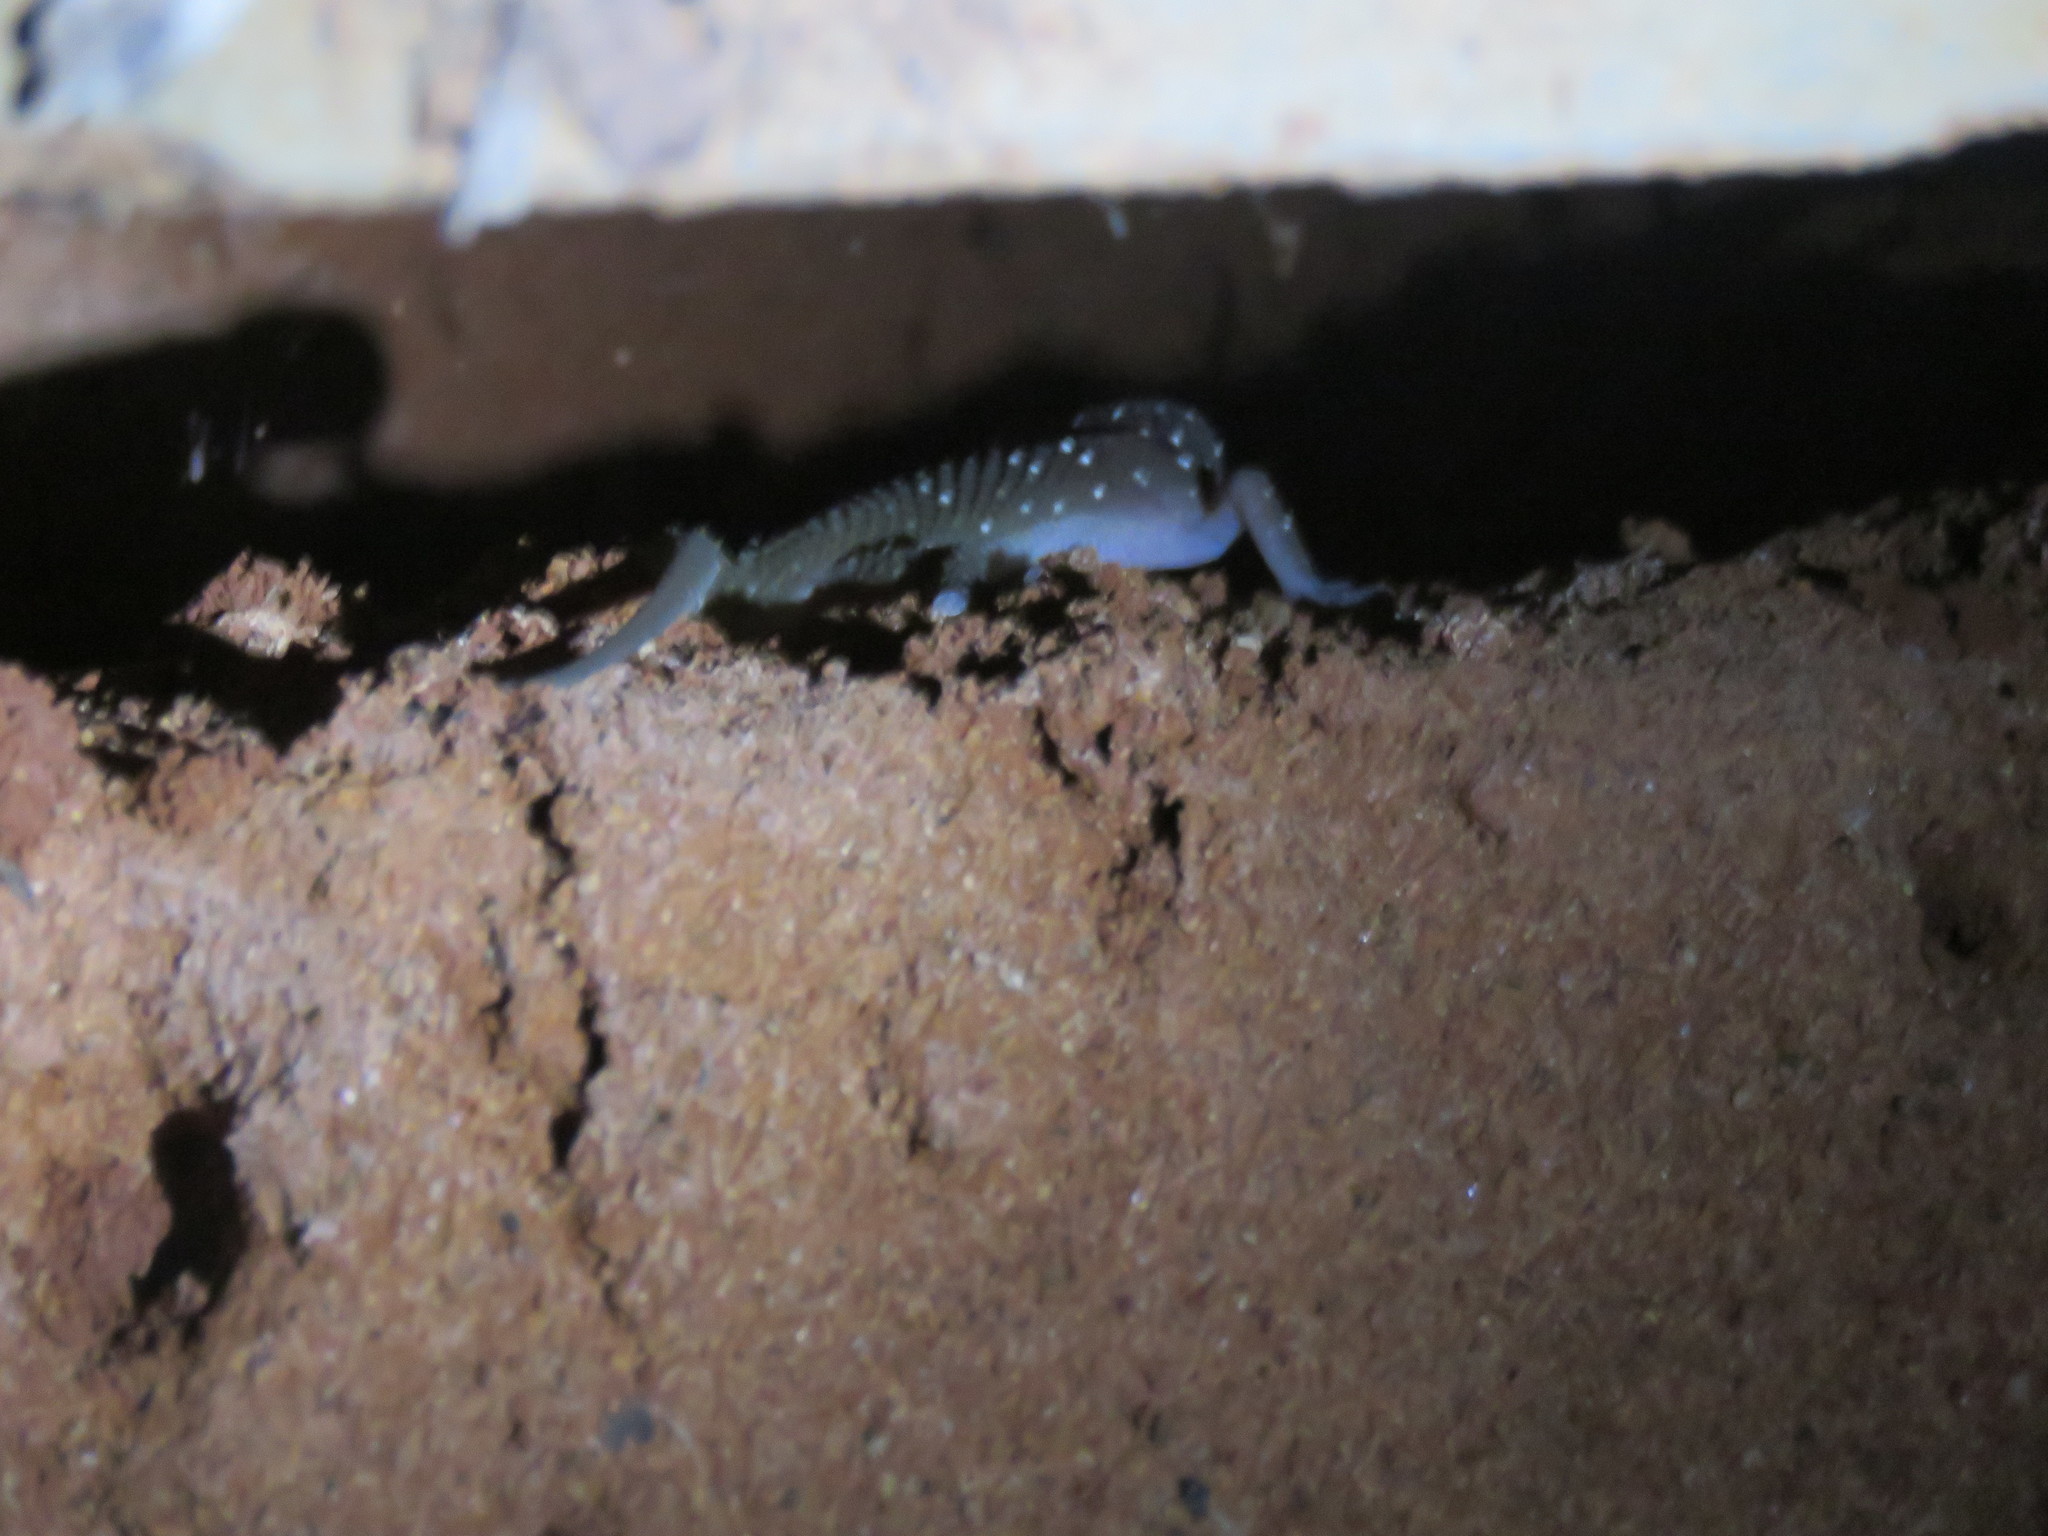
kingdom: Animalia
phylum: Chordata
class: Squamata
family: Gekkonidae
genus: Hemidactylus
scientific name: Hemidactylus triedrus
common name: Blotched house gecko
